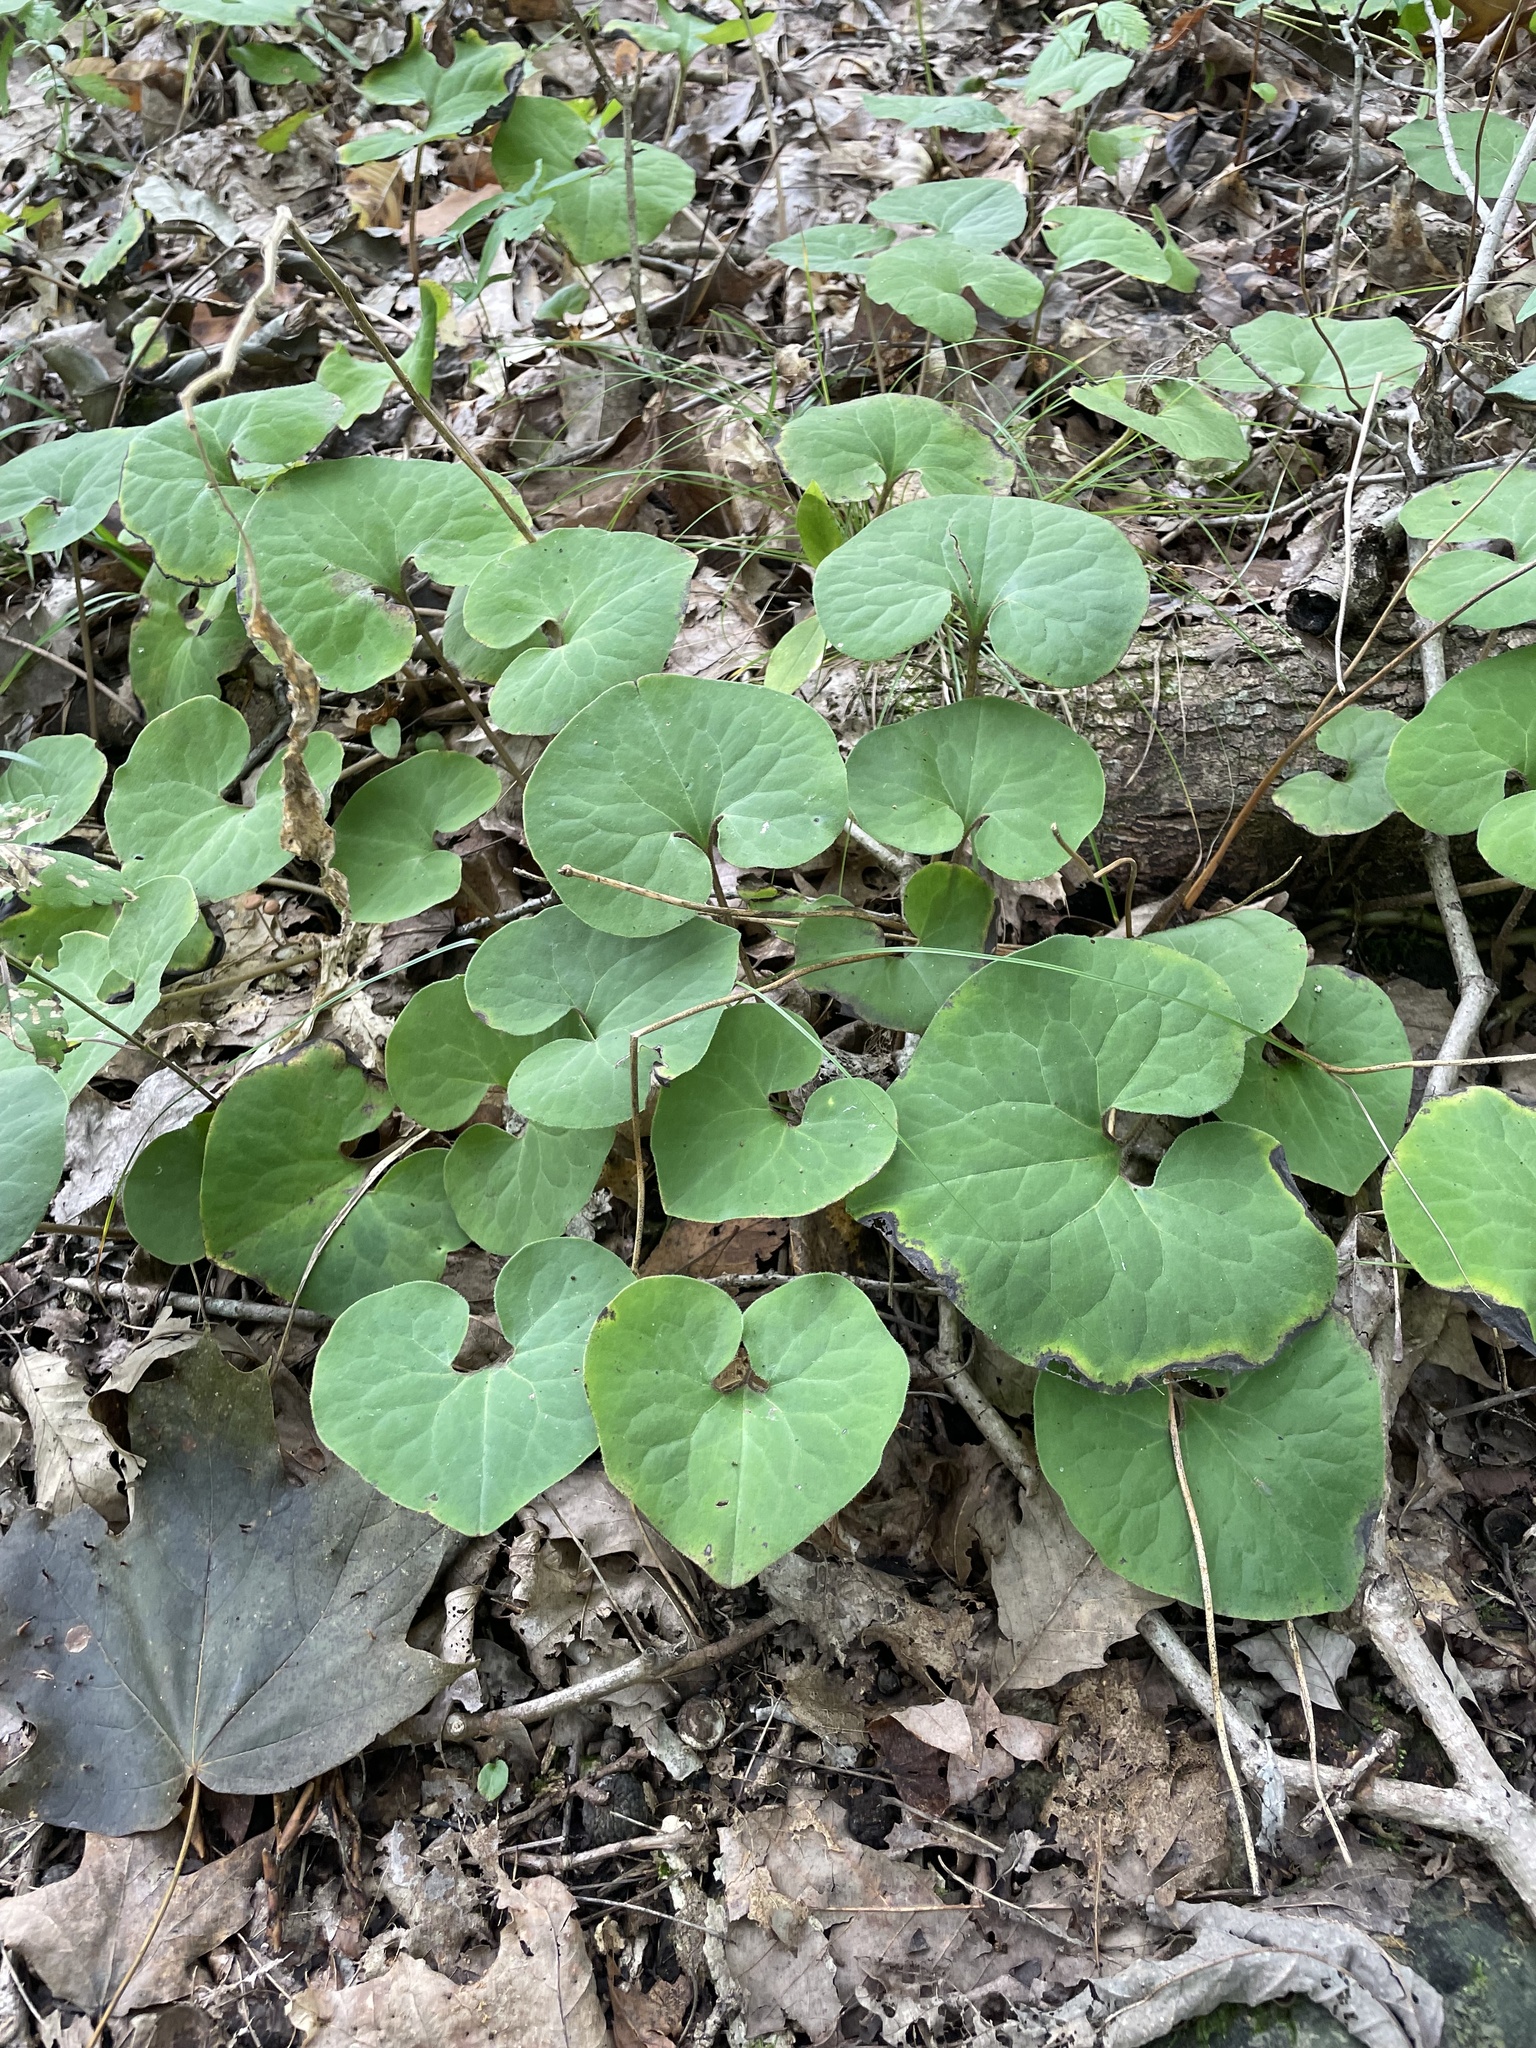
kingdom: Plantae
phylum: Tracheophyta
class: Magnoliopsida
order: Piperales
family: Aristolochiaceae
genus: Asarum
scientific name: Asarum canadense
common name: Wild ginger
